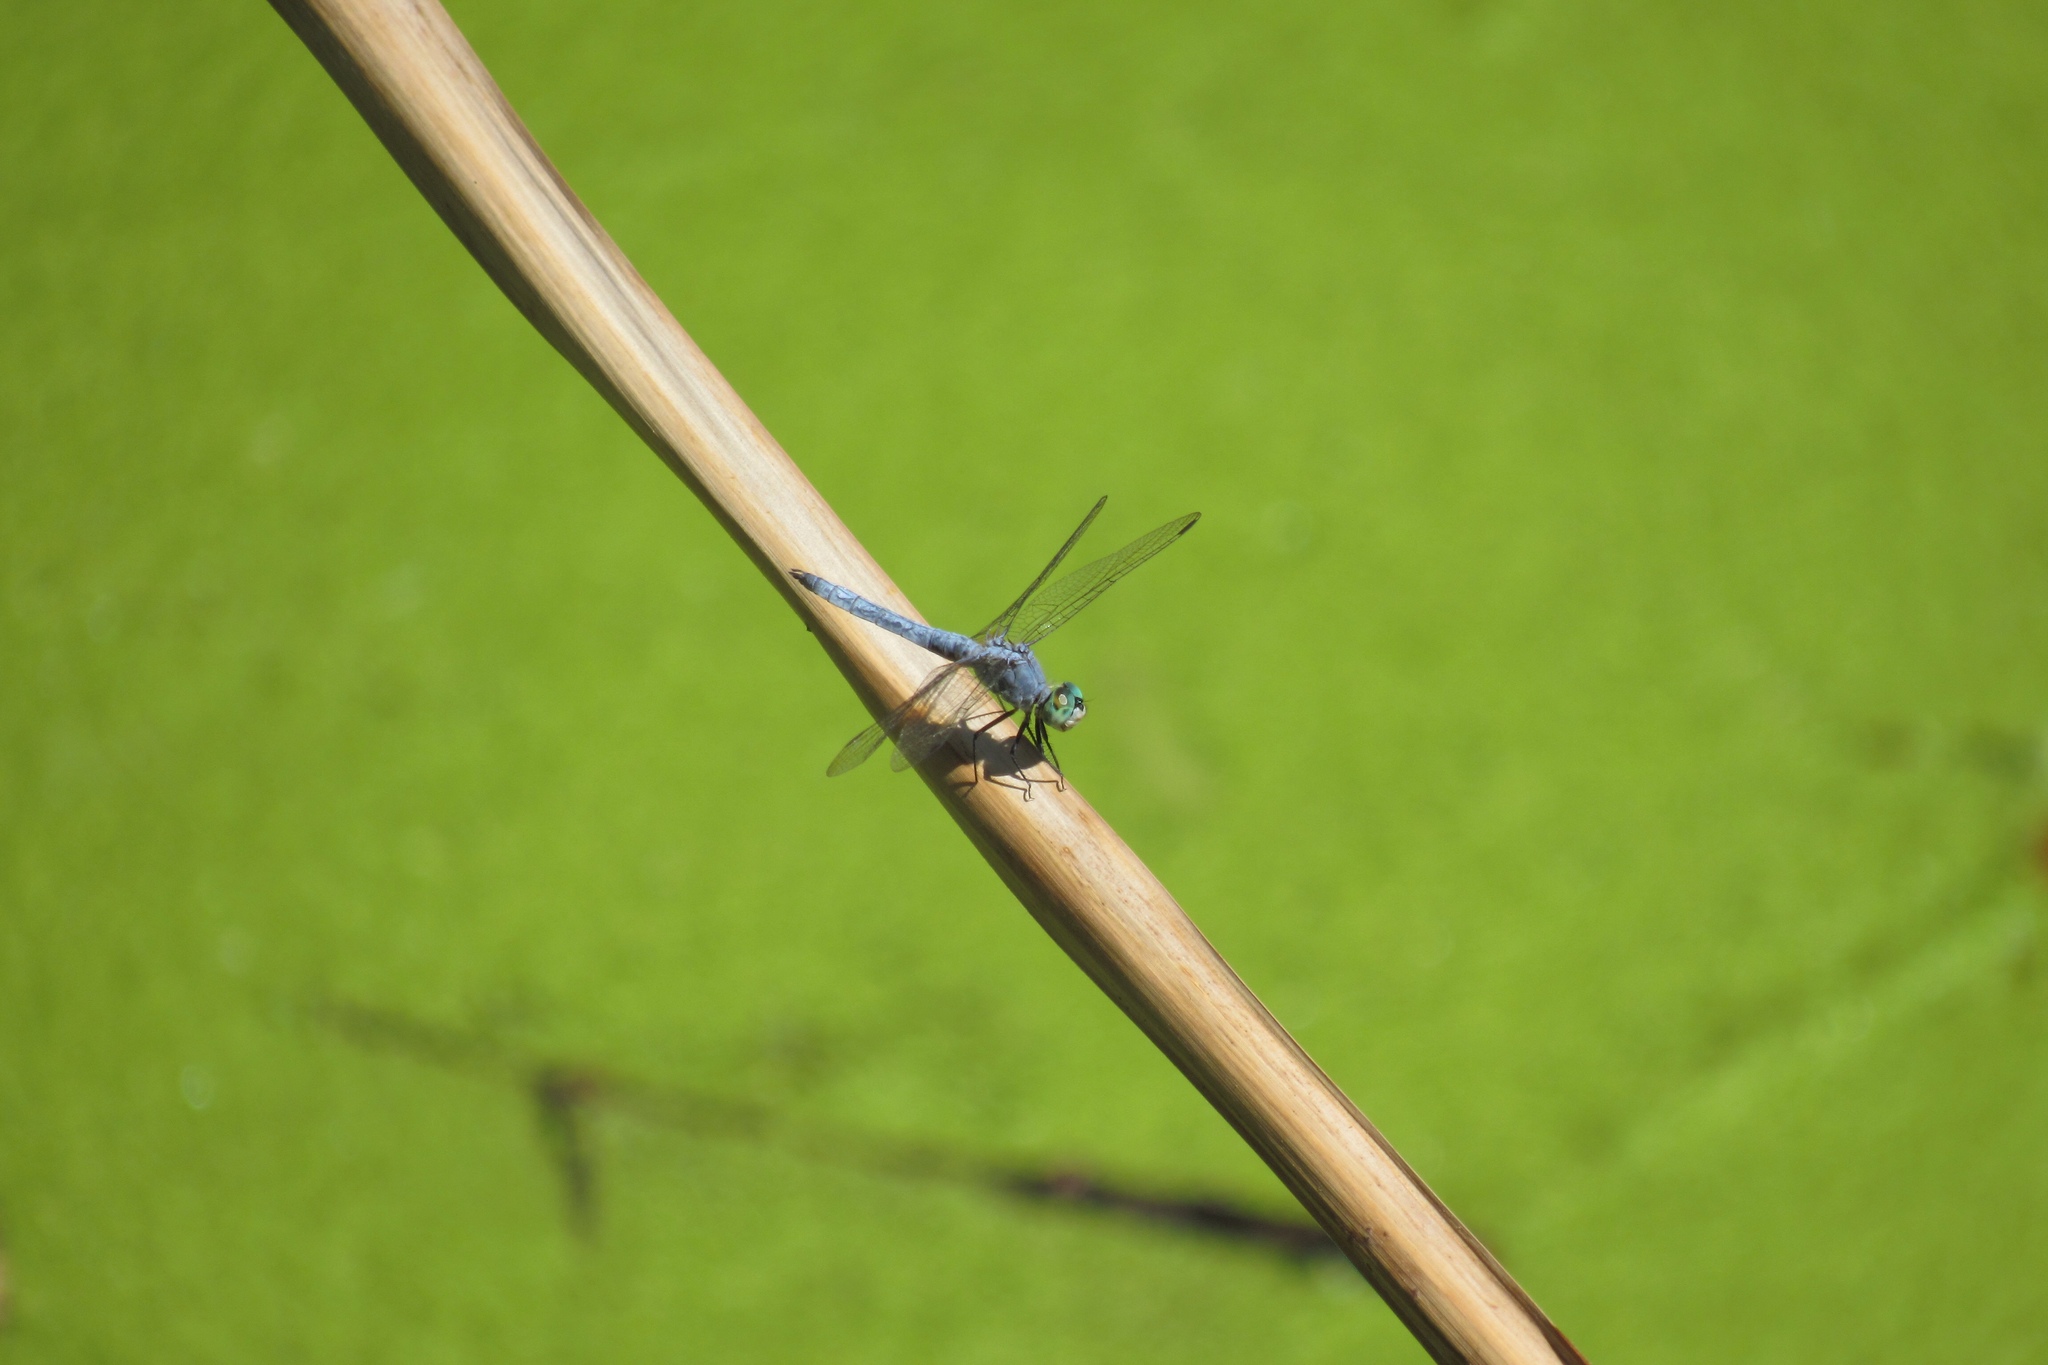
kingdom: Animalia
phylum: Arthropoda
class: Insecta
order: Odonata
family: Libellulidae
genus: Pachydiplax
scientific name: Pachydiplax longipennis
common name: Blue dasher
